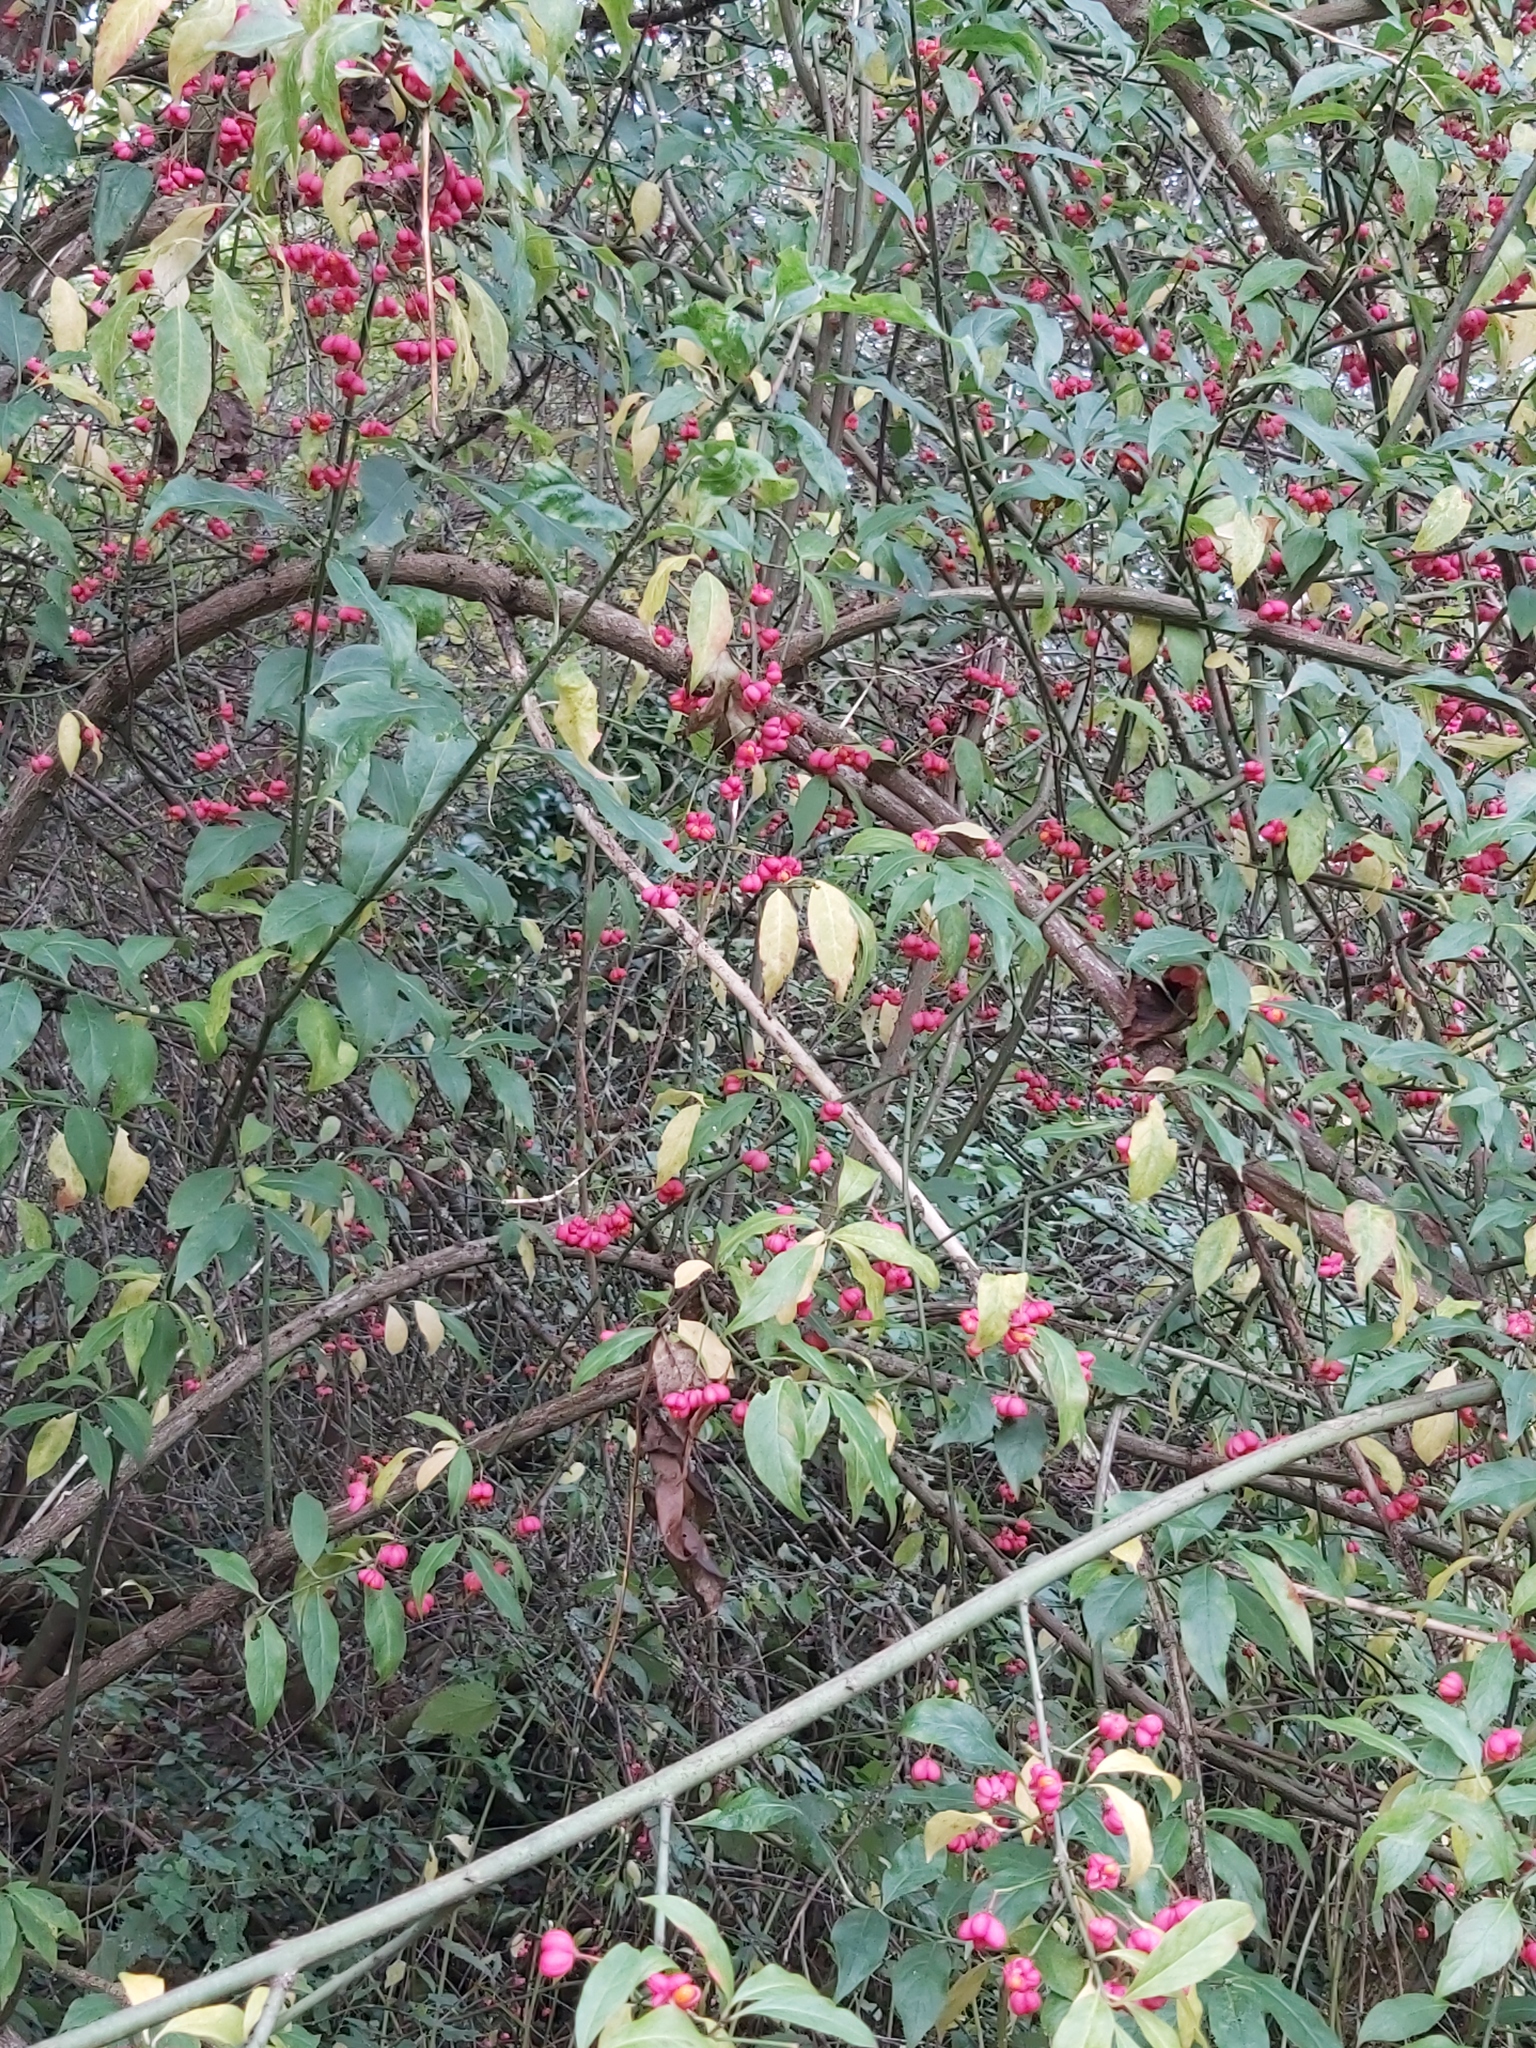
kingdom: Plantae
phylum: Tracheophyta
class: Magnoliopsida
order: Celastrales
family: Celastraceae
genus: Euonymus
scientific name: Euonymus europaeus
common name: Spindle
